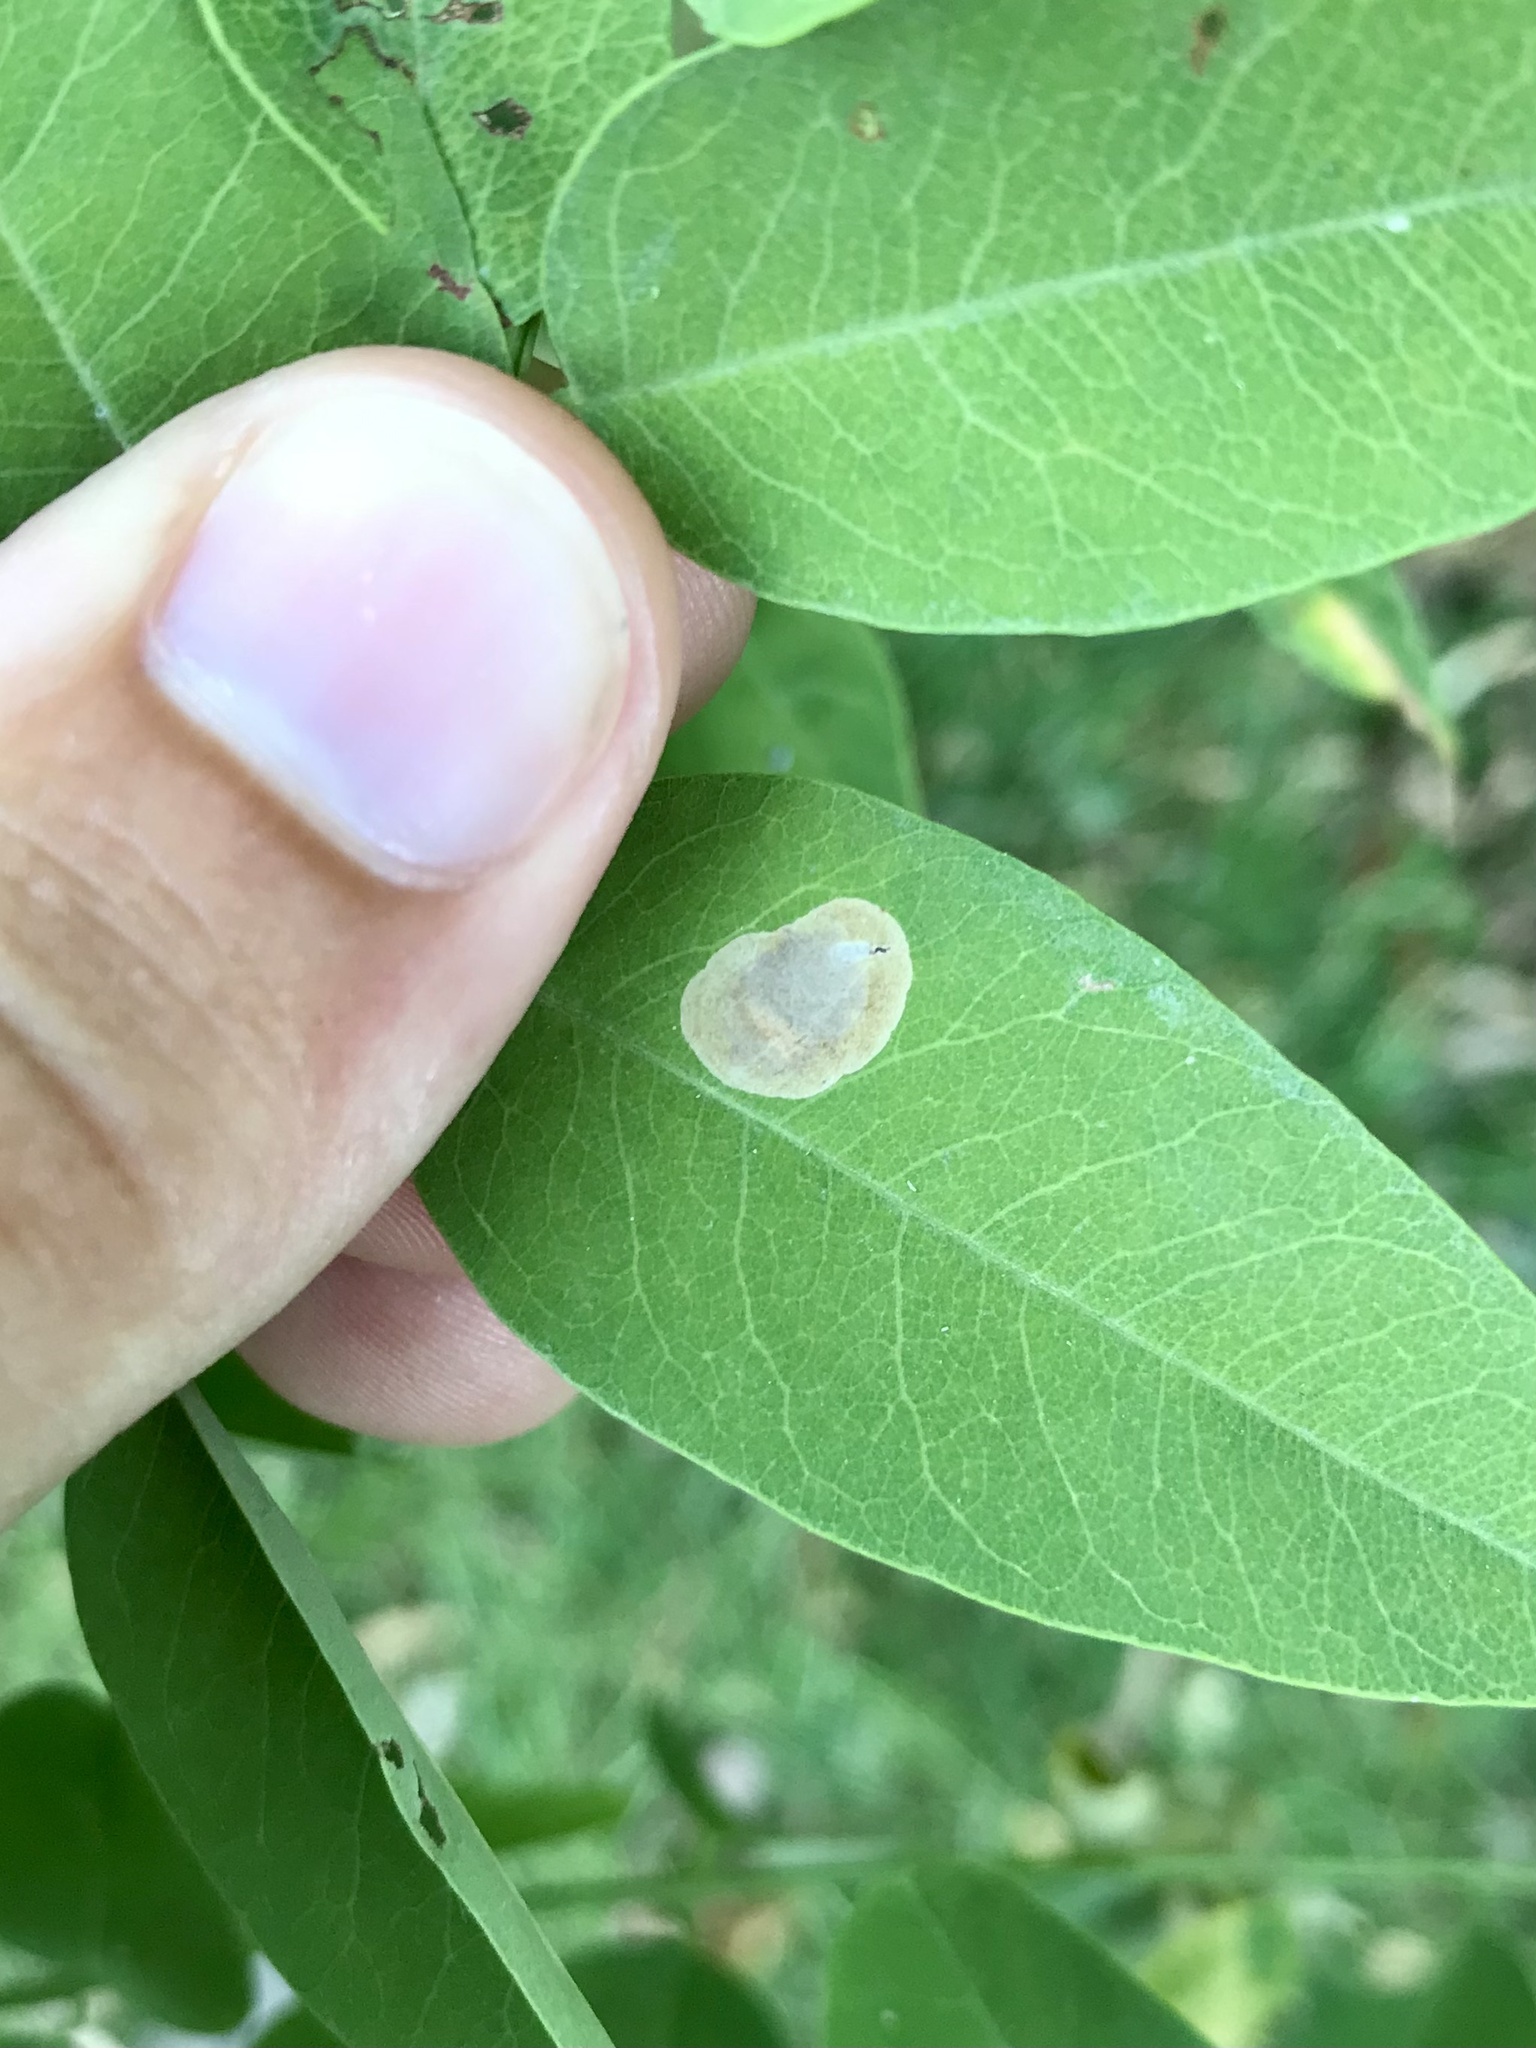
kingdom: Animalia
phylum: Arthropoda
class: Insecta
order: Lepidoptera
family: Gracillariidae
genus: Chrysaster
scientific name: Chrysaster ostensackenella
